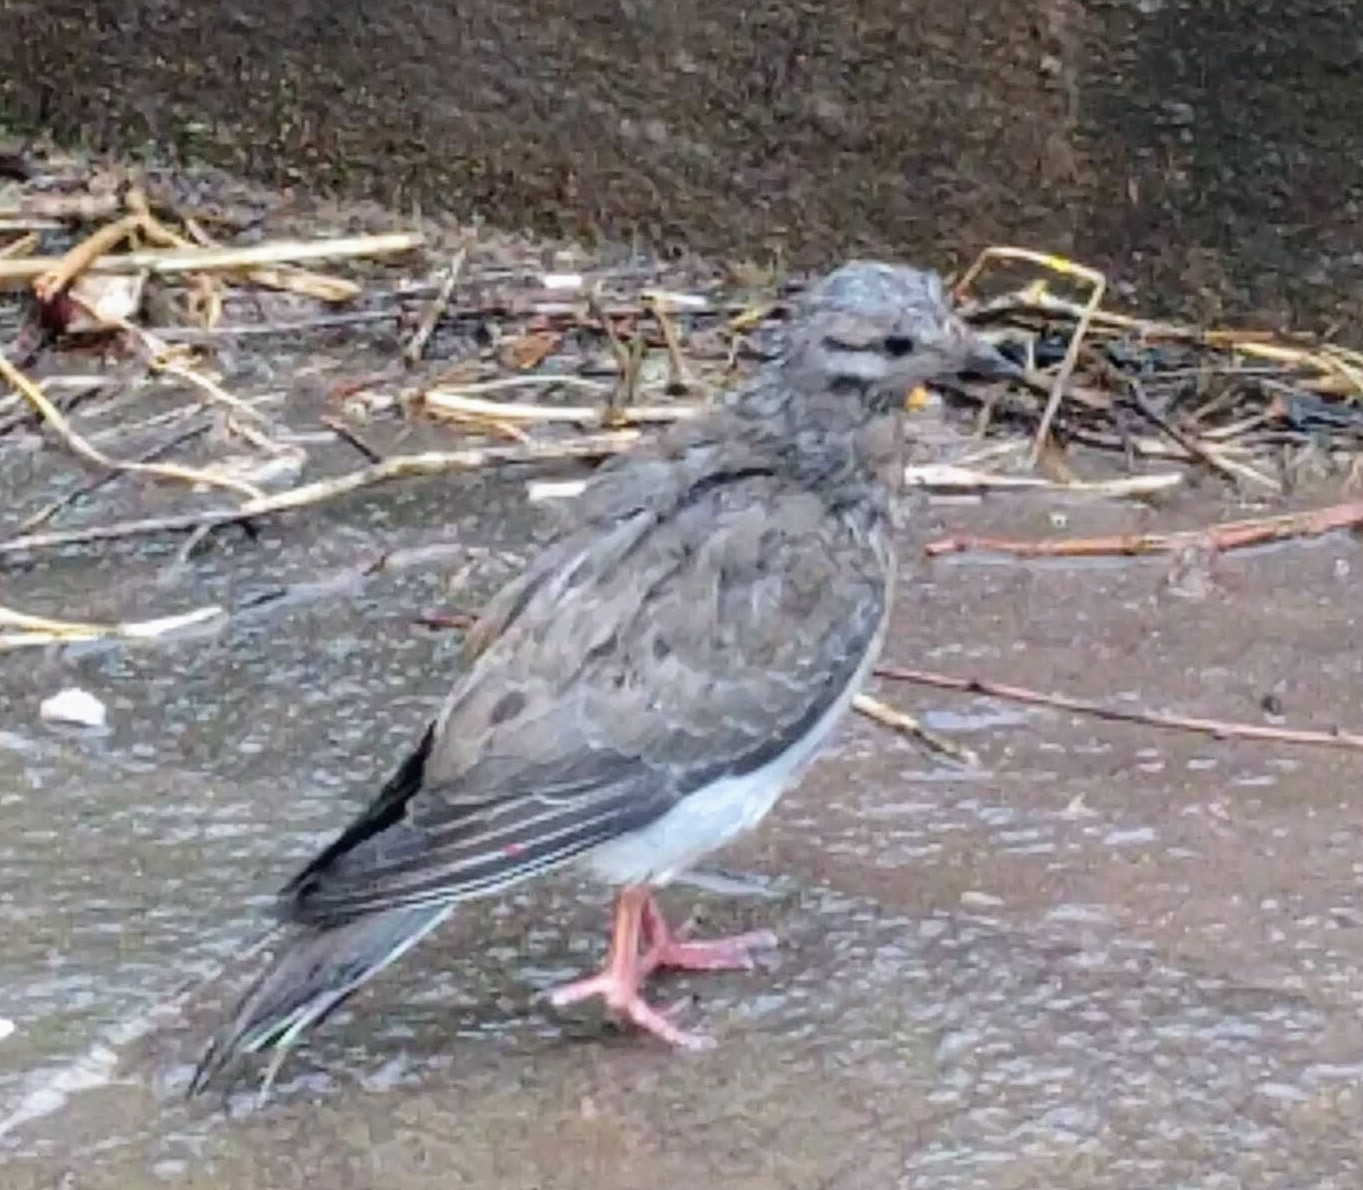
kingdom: Animalia
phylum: Chordata
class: Aves
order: Columbiformes
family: Columbidae
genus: Zenaida
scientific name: Zenaida auriculata
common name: Eared dove
